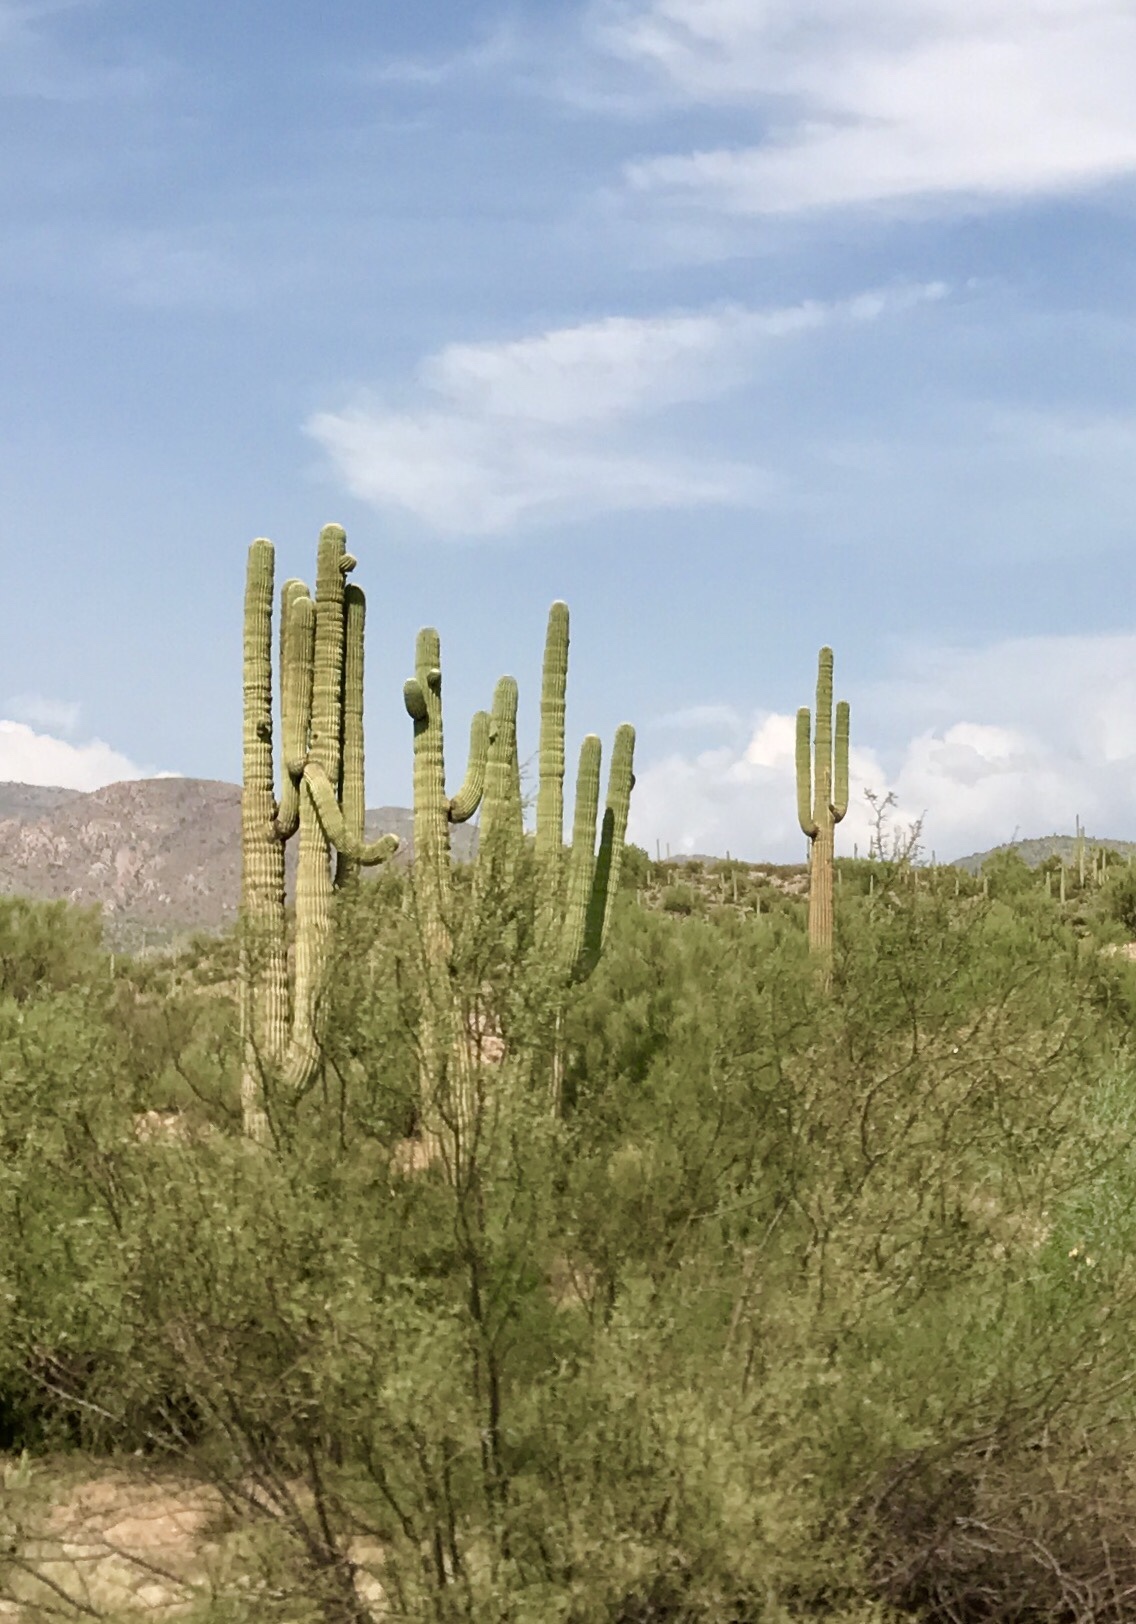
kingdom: Plantae
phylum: Tracheophyta
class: Magnoliopsida
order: Caryophyllales
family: Cactaceae
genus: Carnegiea
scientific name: Carnegiea gigantea
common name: Saguaro
